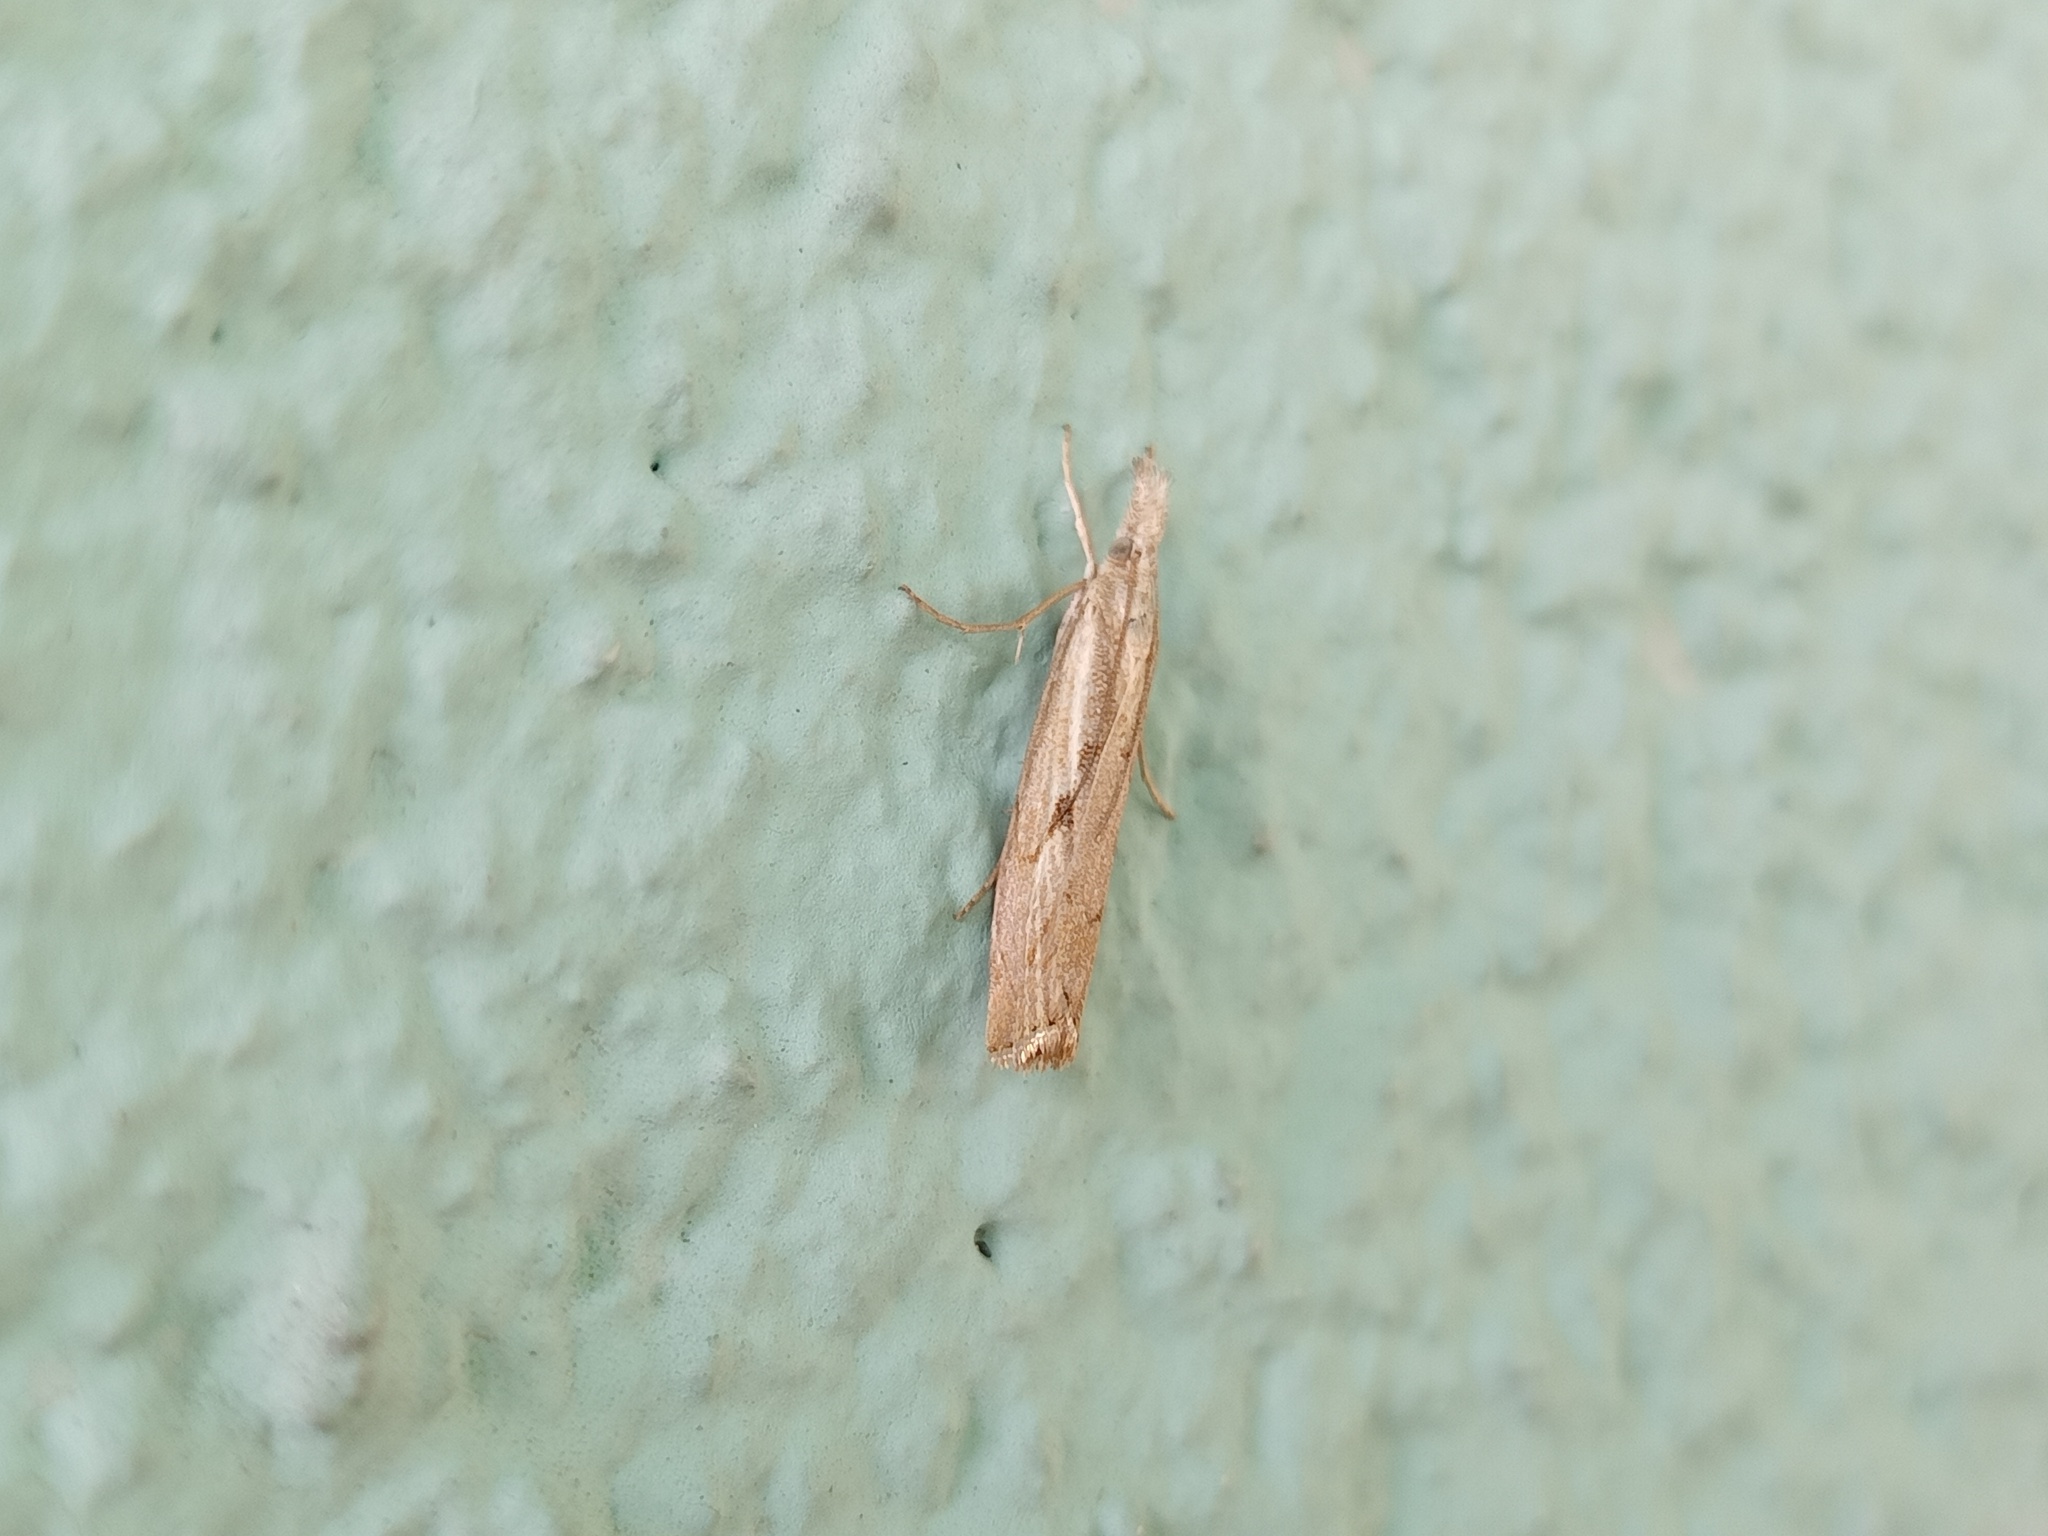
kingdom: Animalia
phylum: Arthropoda
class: Insecta
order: Lepidoptera
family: Crambidae
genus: Agriphila
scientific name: Agriphila geniculea
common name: Elbow-stripe grass-veneer
